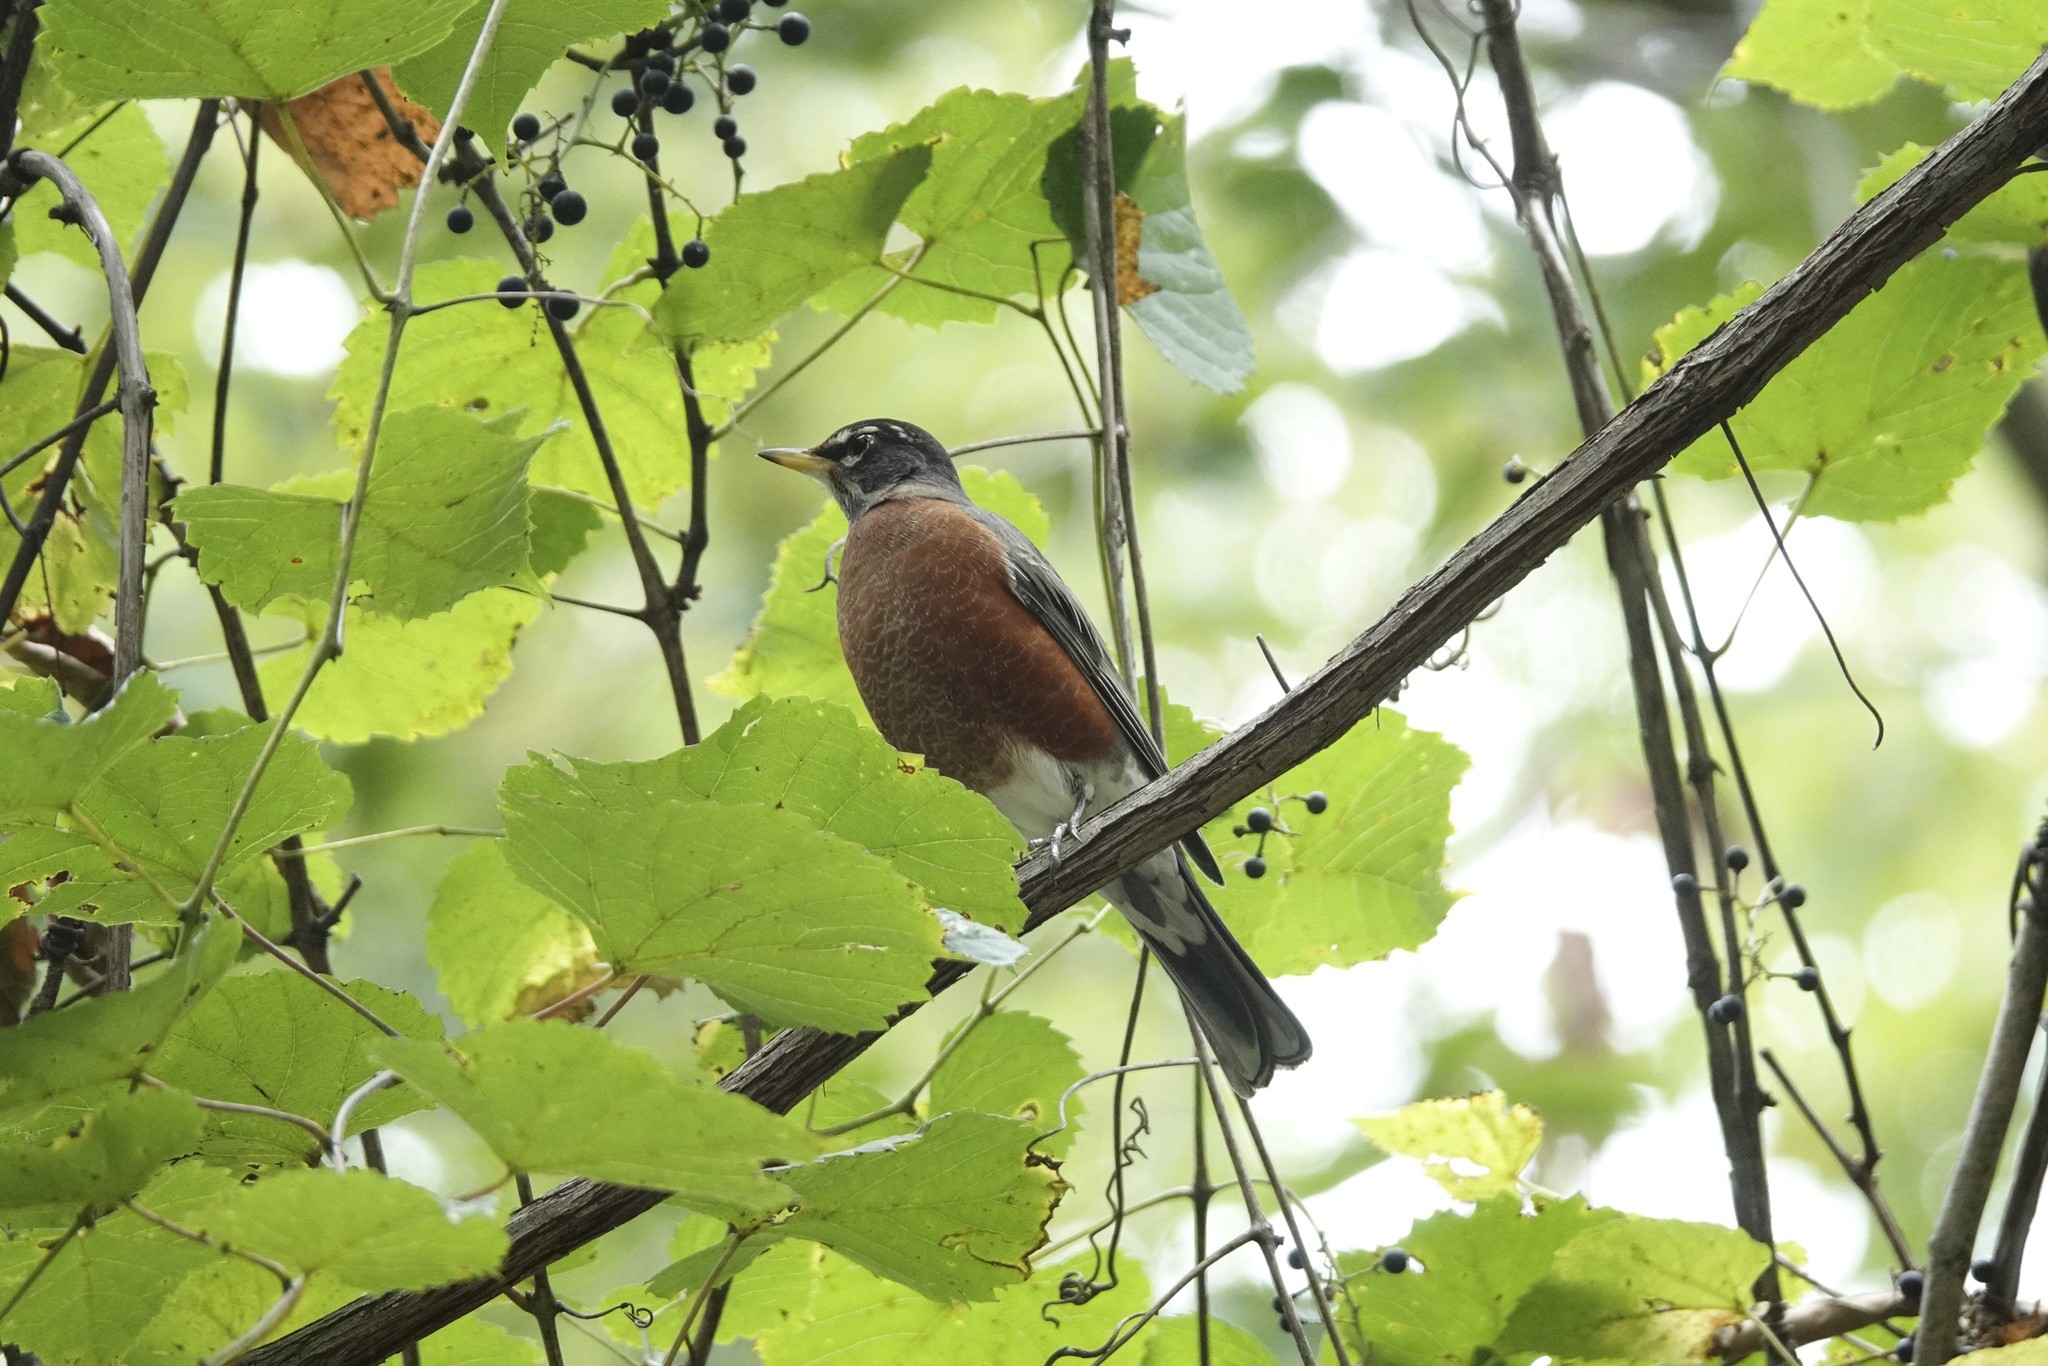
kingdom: Animalia
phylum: Chordata
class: Aves
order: Passeriformes
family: Turdidae
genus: Turdus
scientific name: Turdus migratorius
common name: American robin
